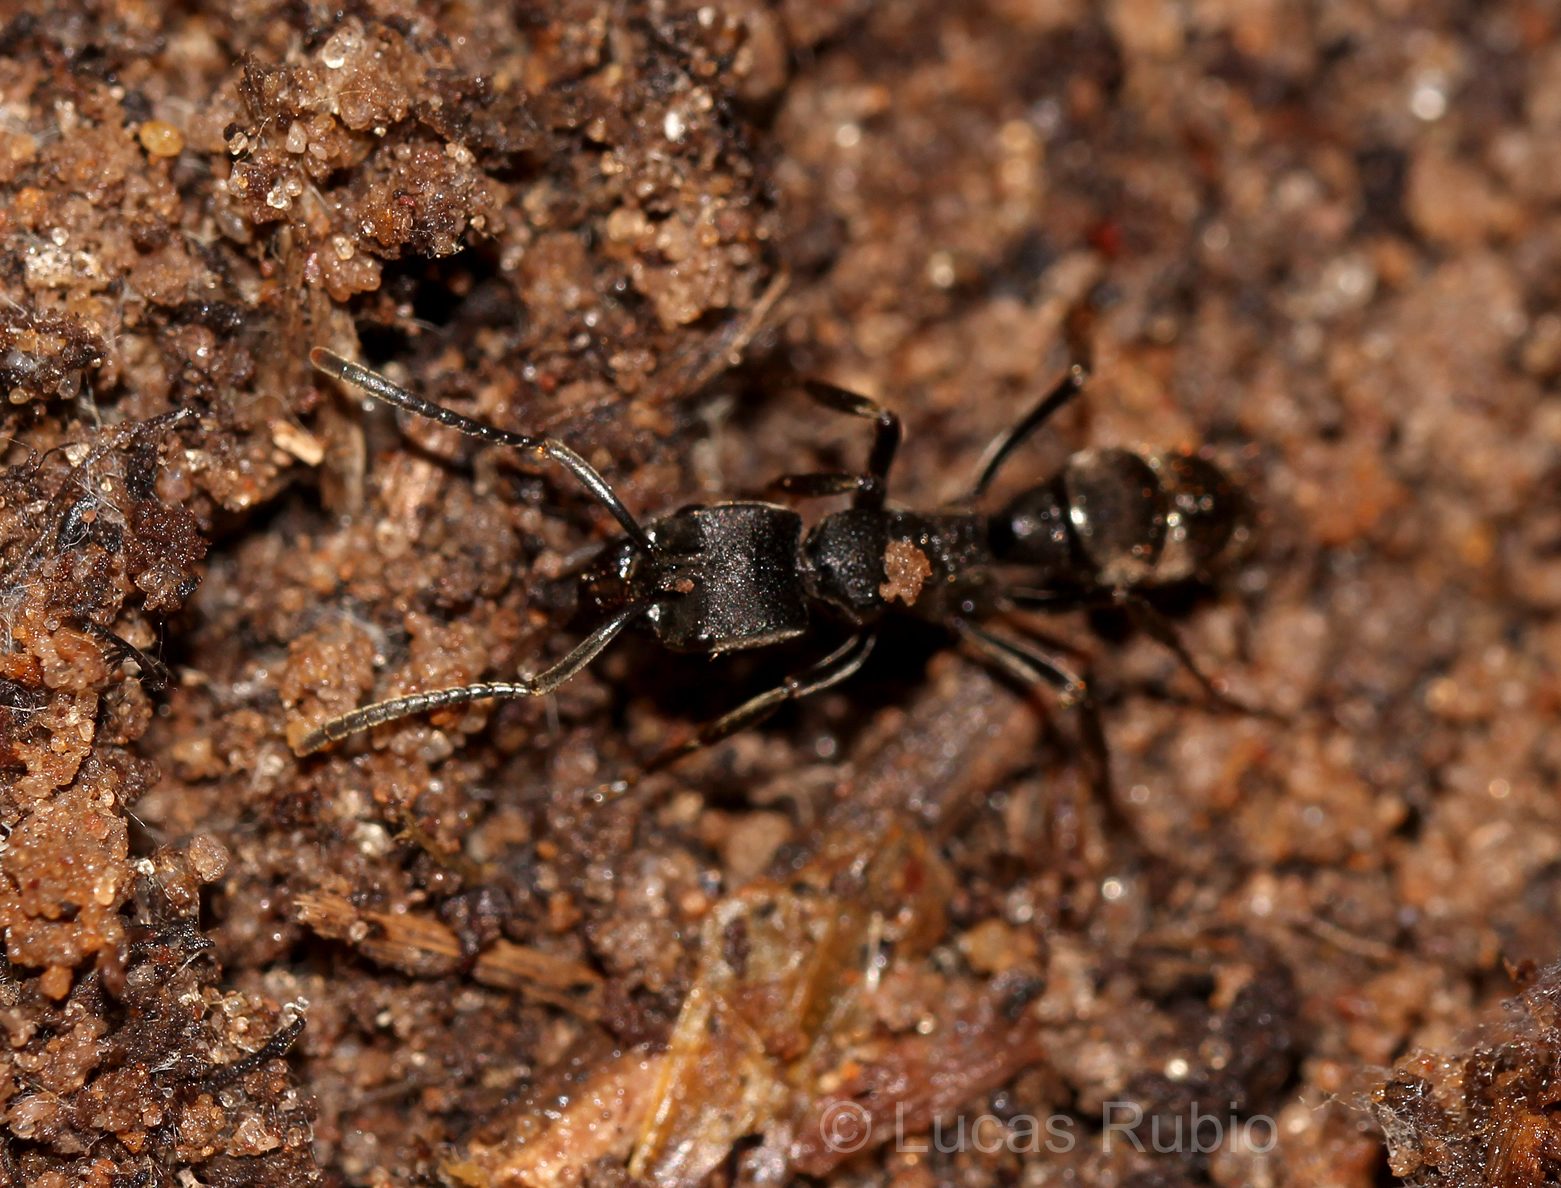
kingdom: Animalia
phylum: Arthropoda
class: Insecta
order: Hymenoptera
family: Formicidae
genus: Pachycondyla
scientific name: Pachycondyla striata
